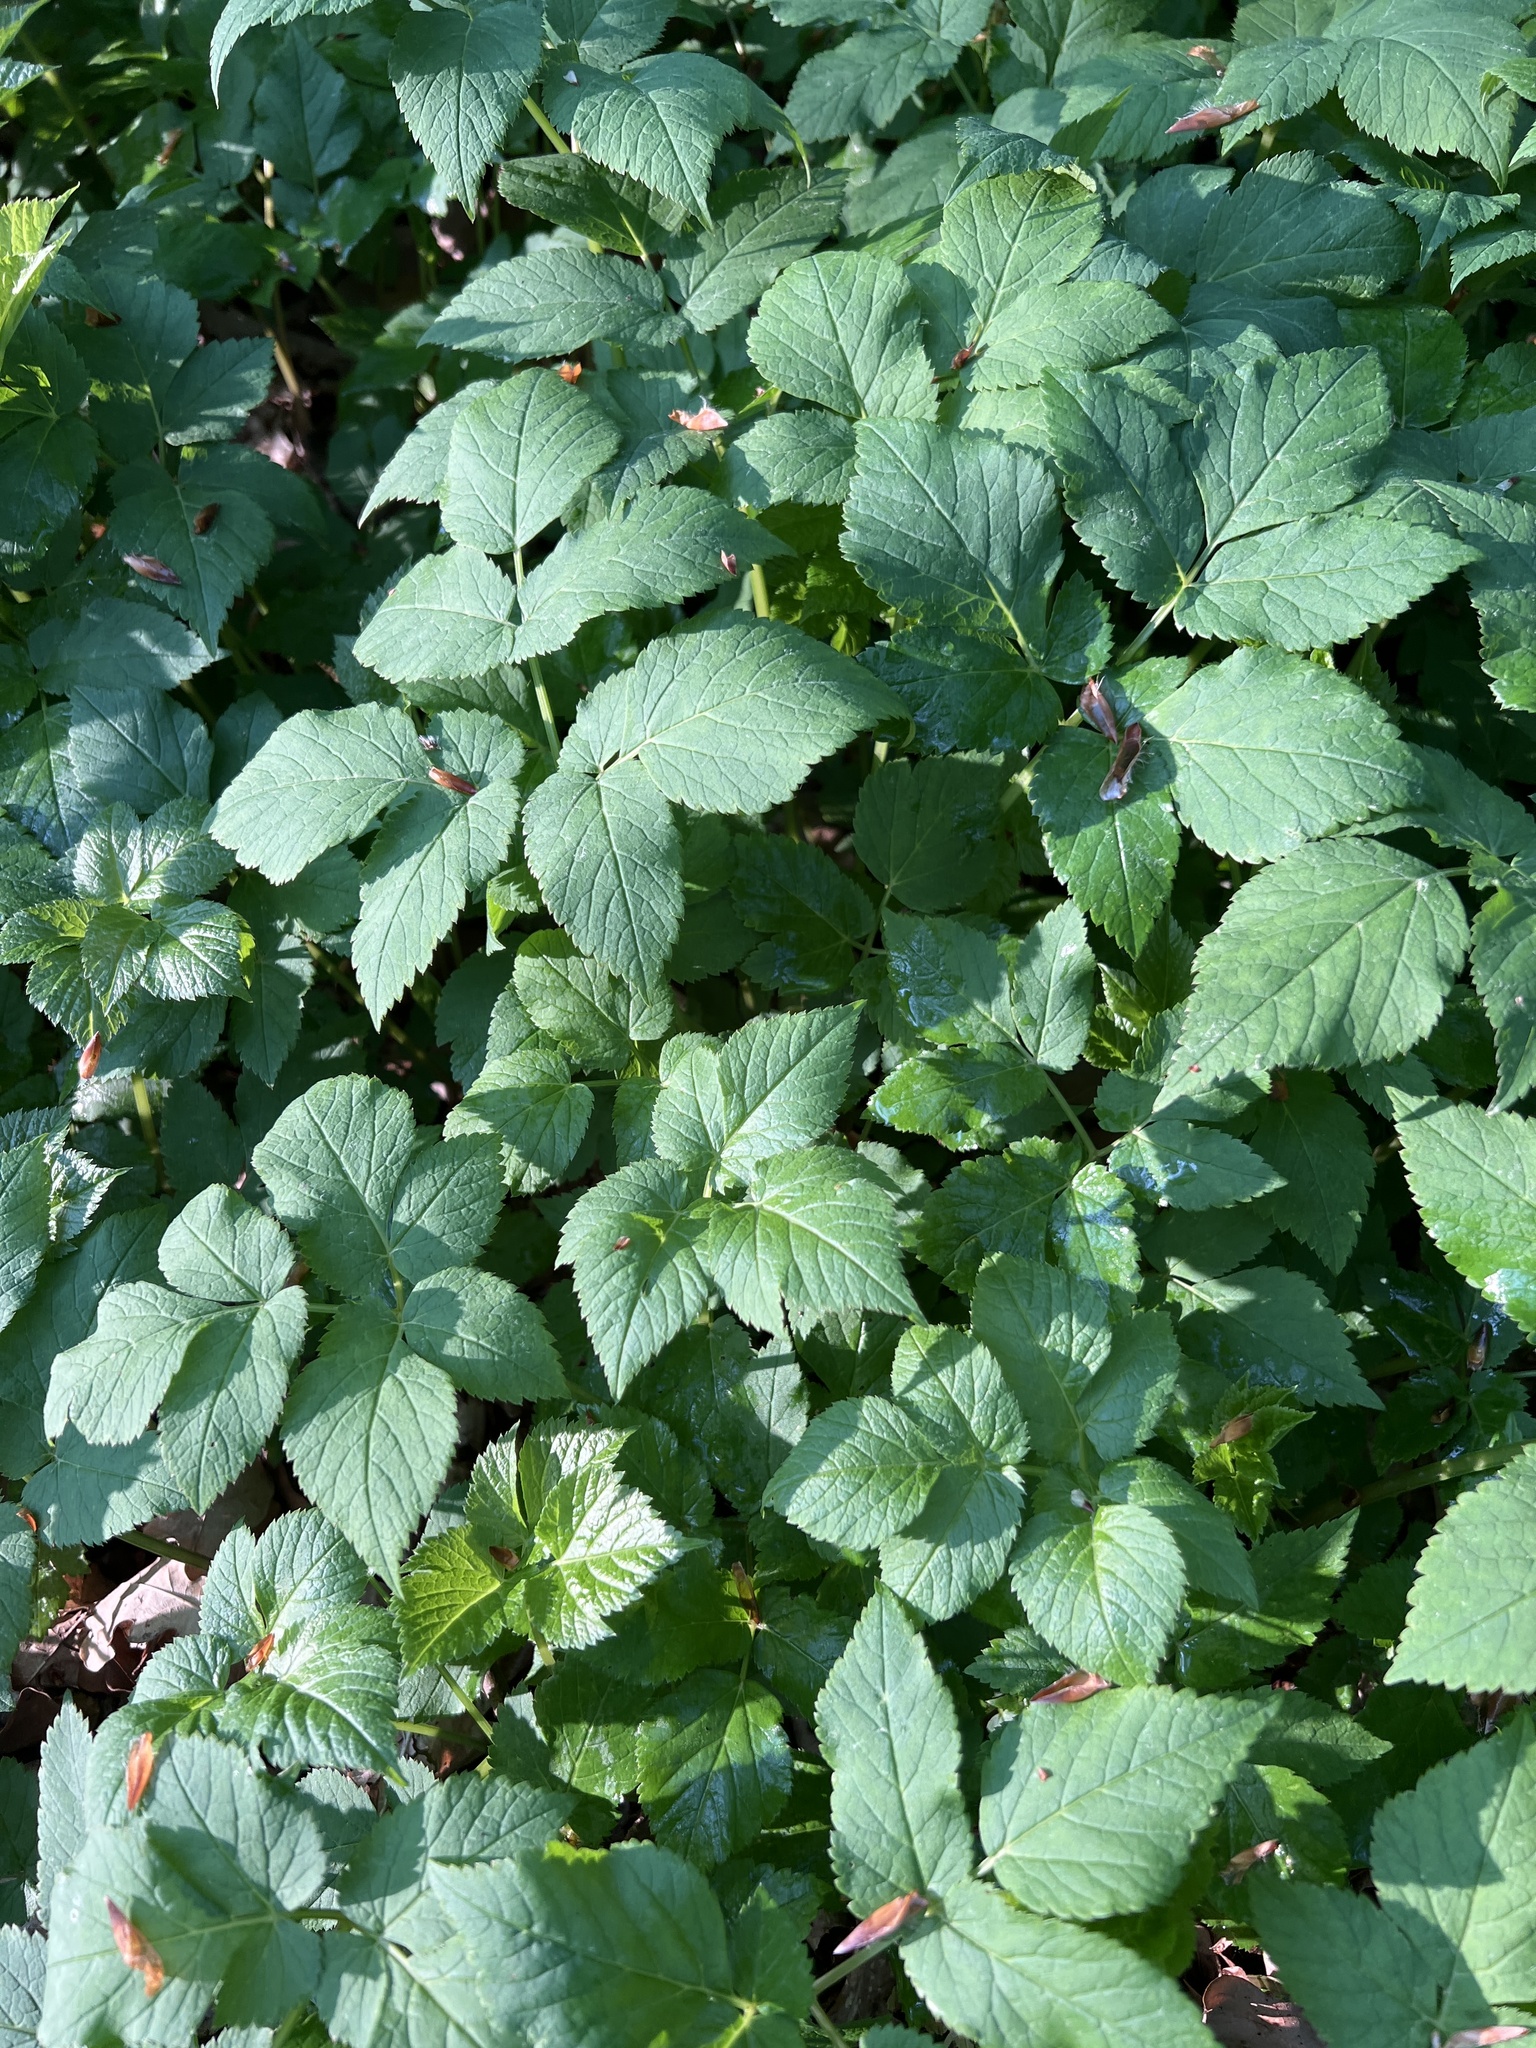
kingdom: Plantae
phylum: Tracheophyta
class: Magnoliopsida
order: Apiales
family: Apiaceae
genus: Aegopodium
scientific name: Aegopodium podagraria
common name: Ground-elder
